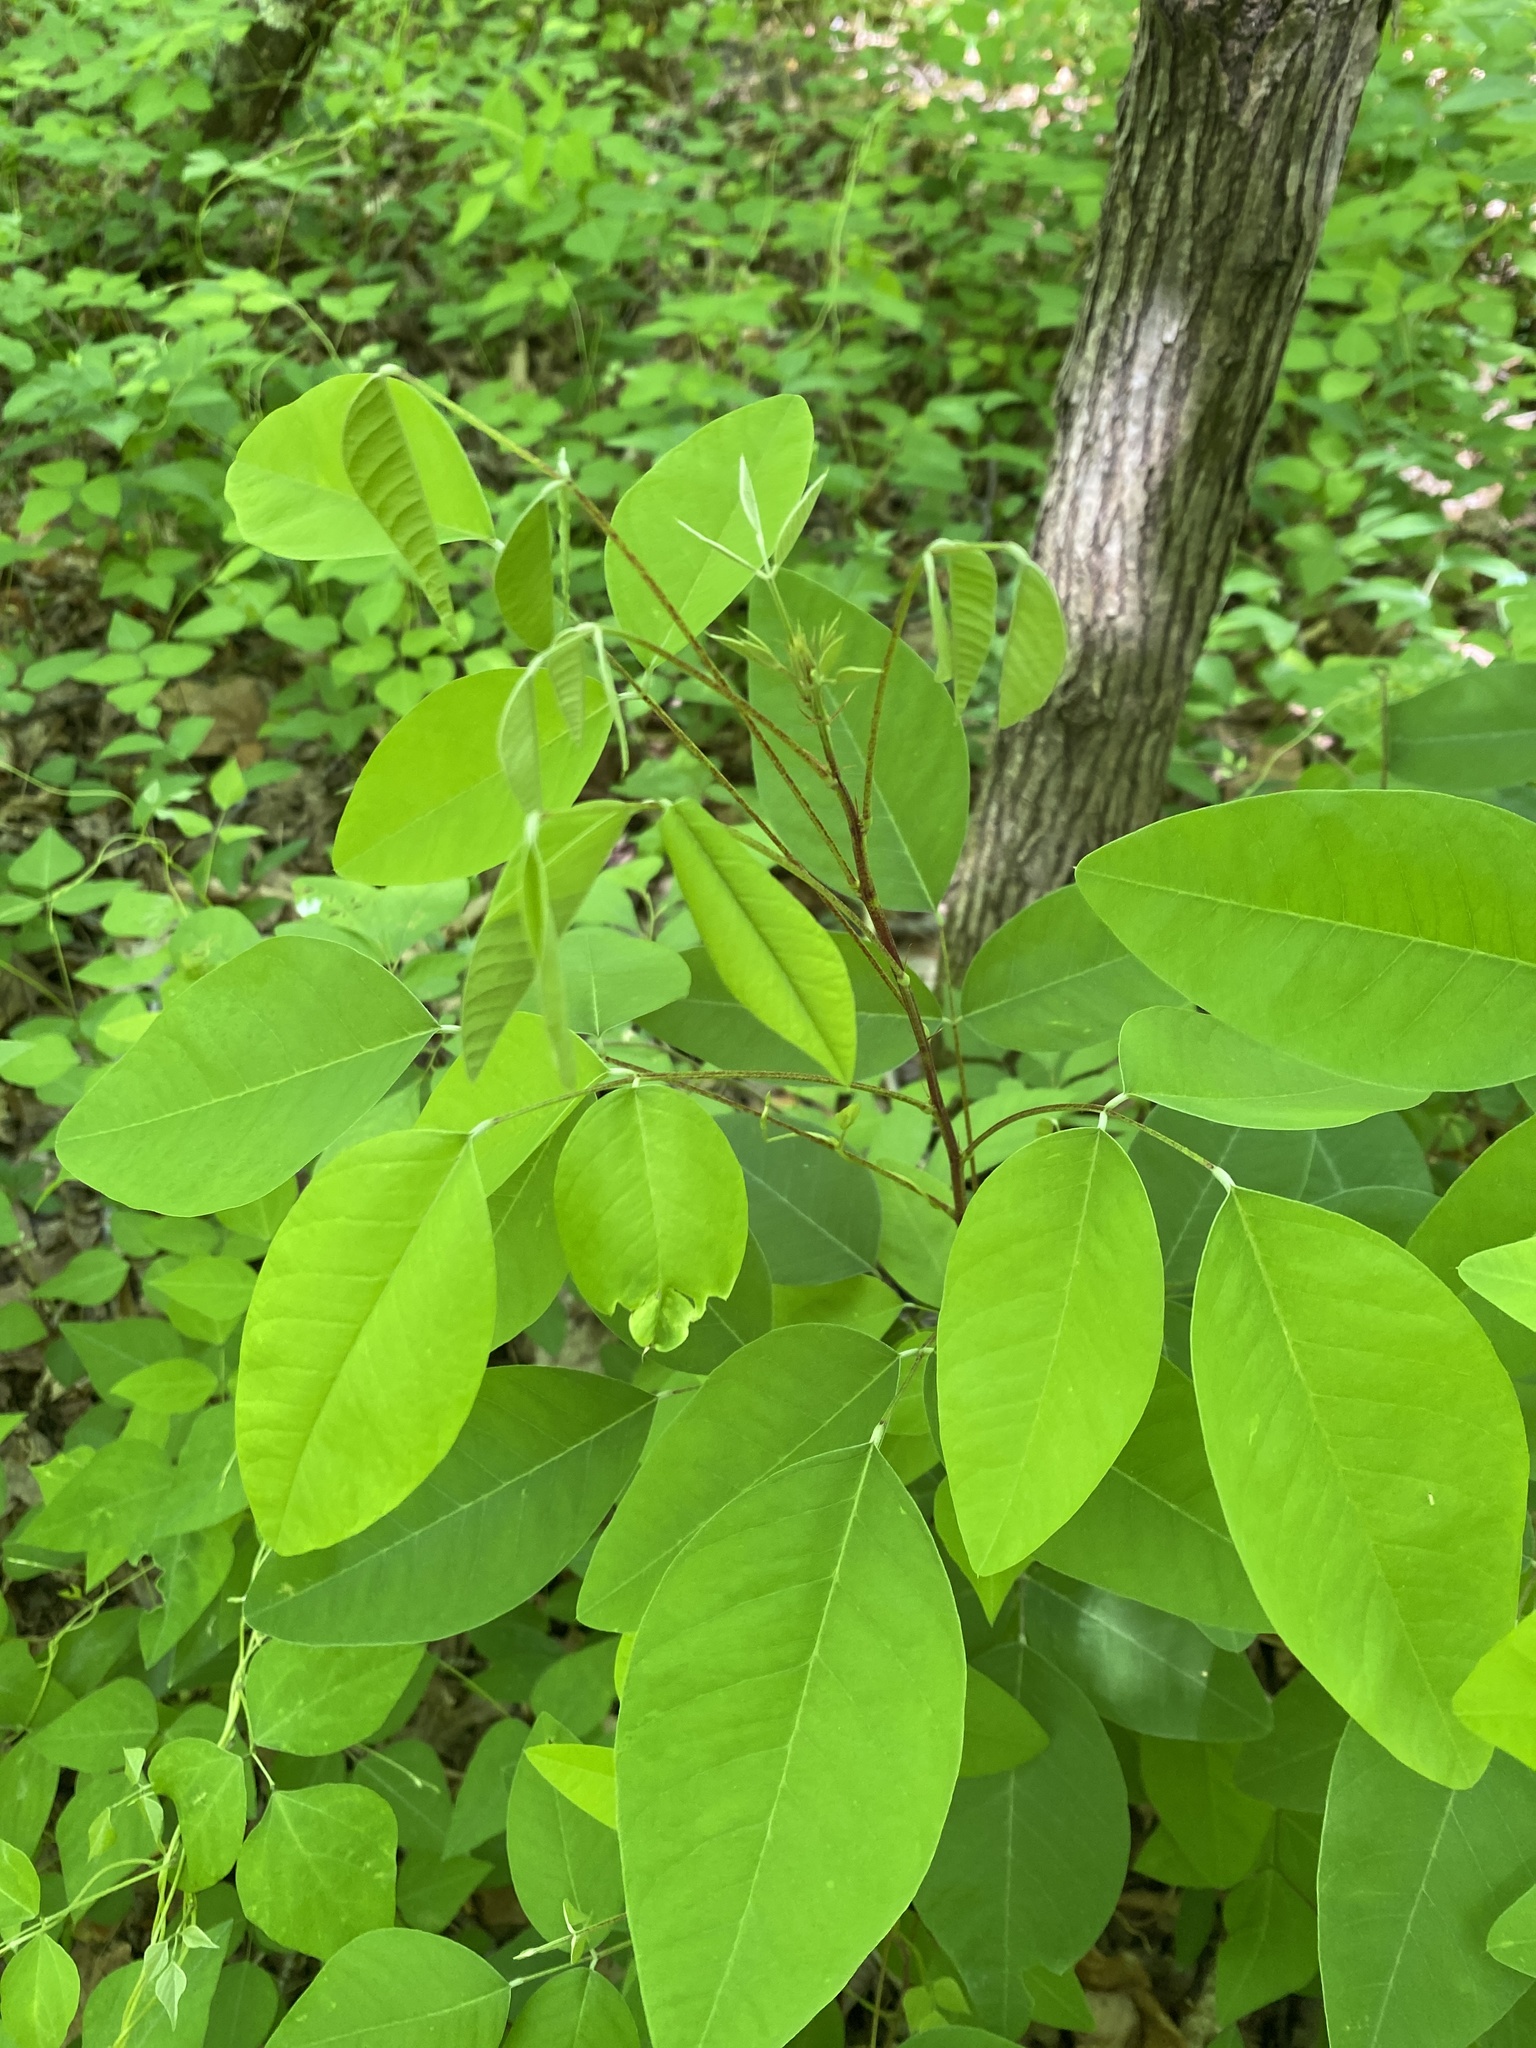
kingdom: Plantae
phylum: Tracheophyta
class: Magnoliopsida
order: Fabales
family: Fabaceae
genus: Lespedeza
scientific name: Lespedeza bicolor
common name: Shrub lespedeza
